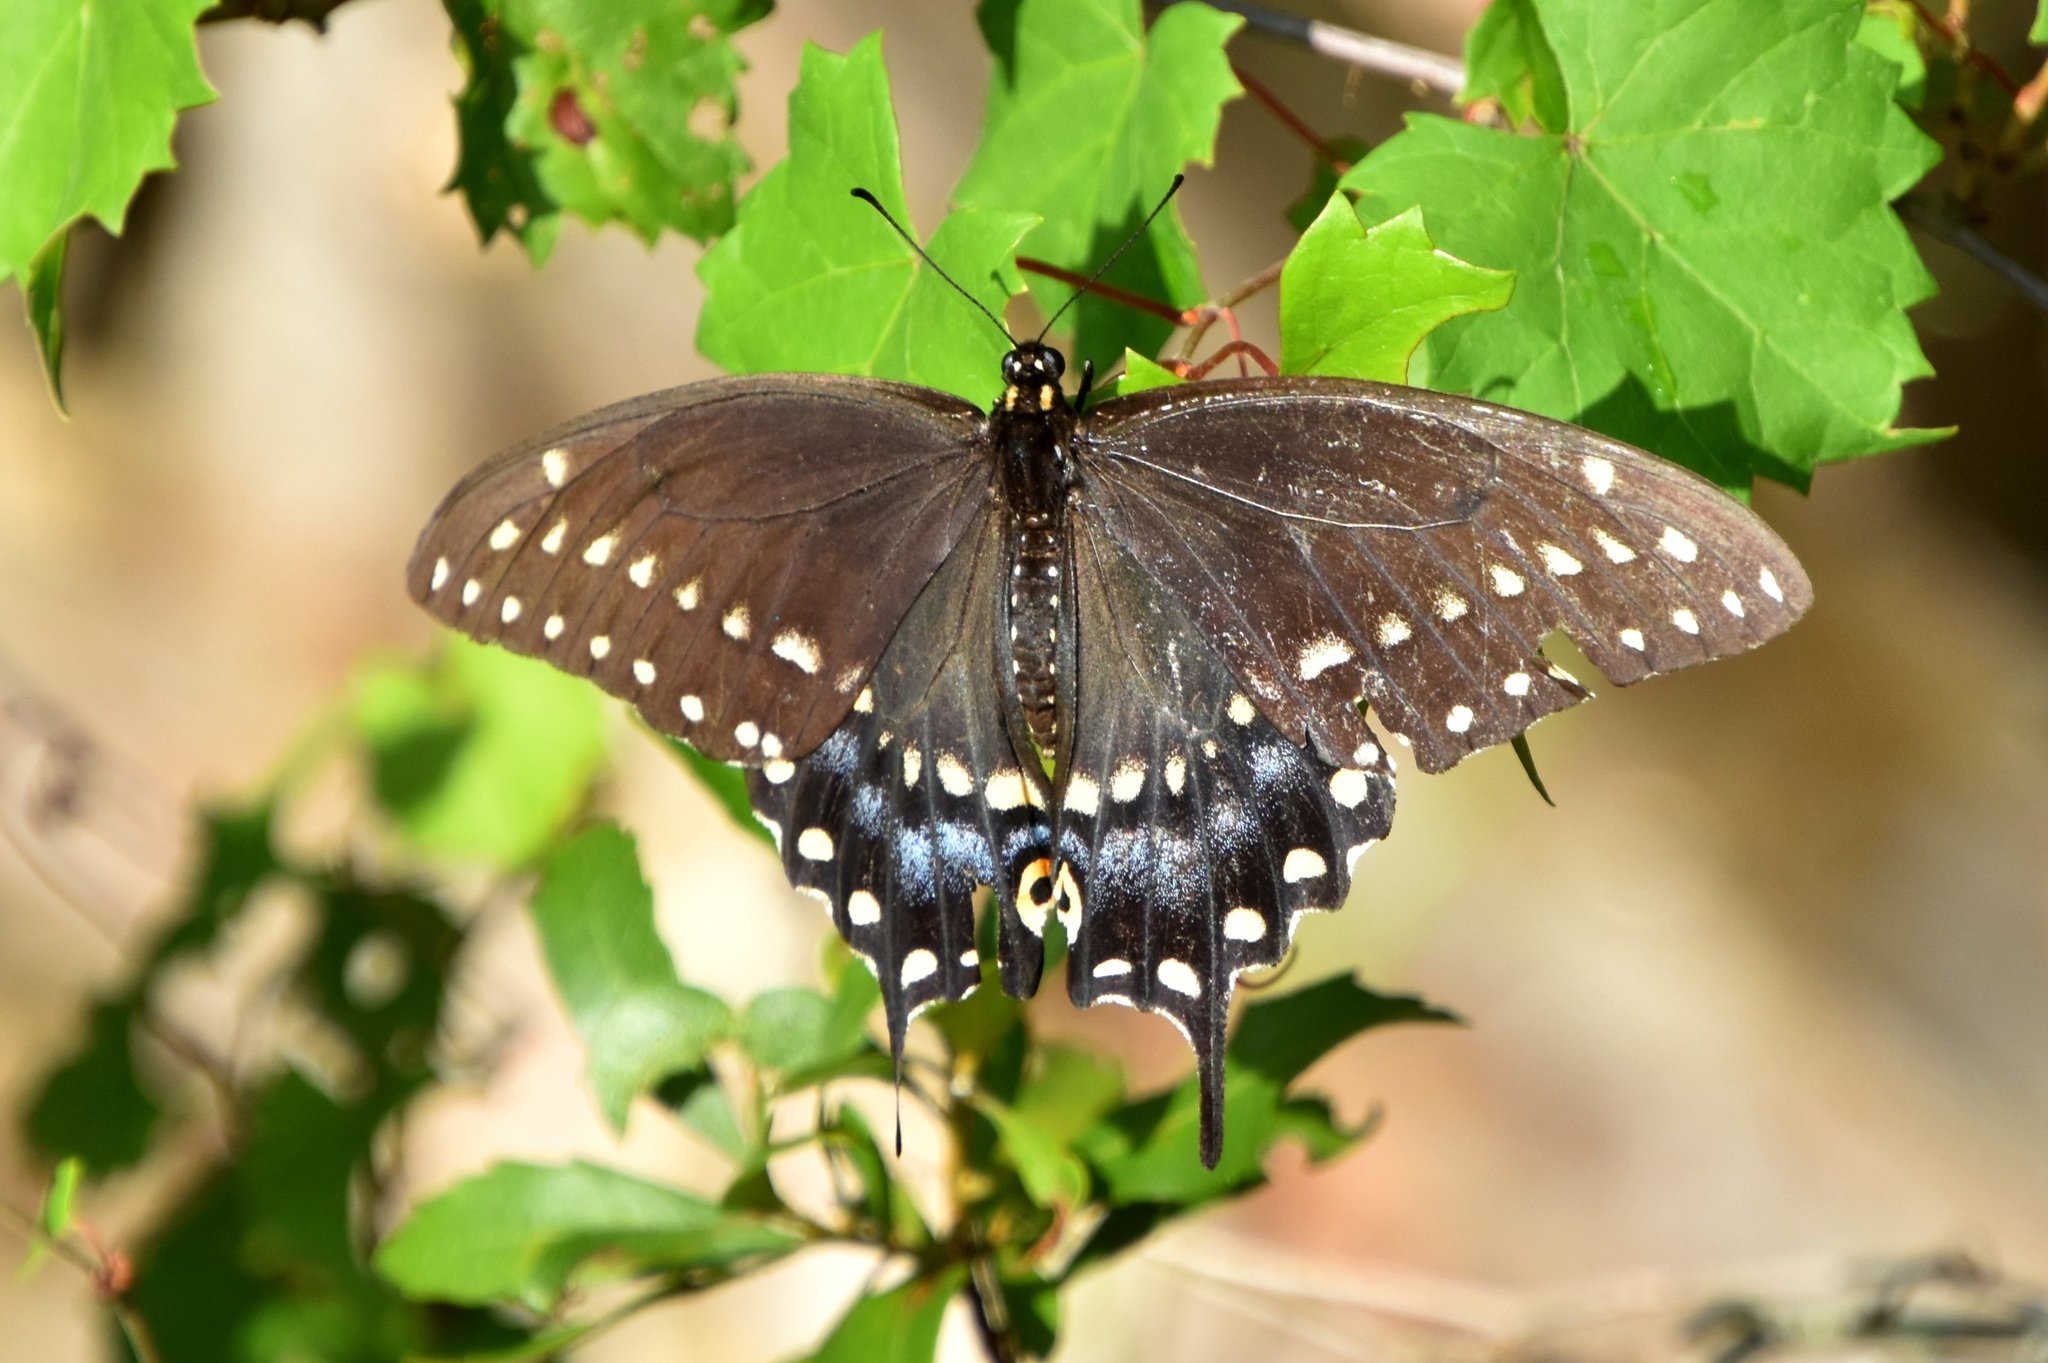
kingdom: Animalia
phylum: Arthropoda
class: Insecta
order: Lepidoptera
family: Papilionidae
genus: Papilio
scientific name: Papilio polyxenes
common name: Black swallowtail
